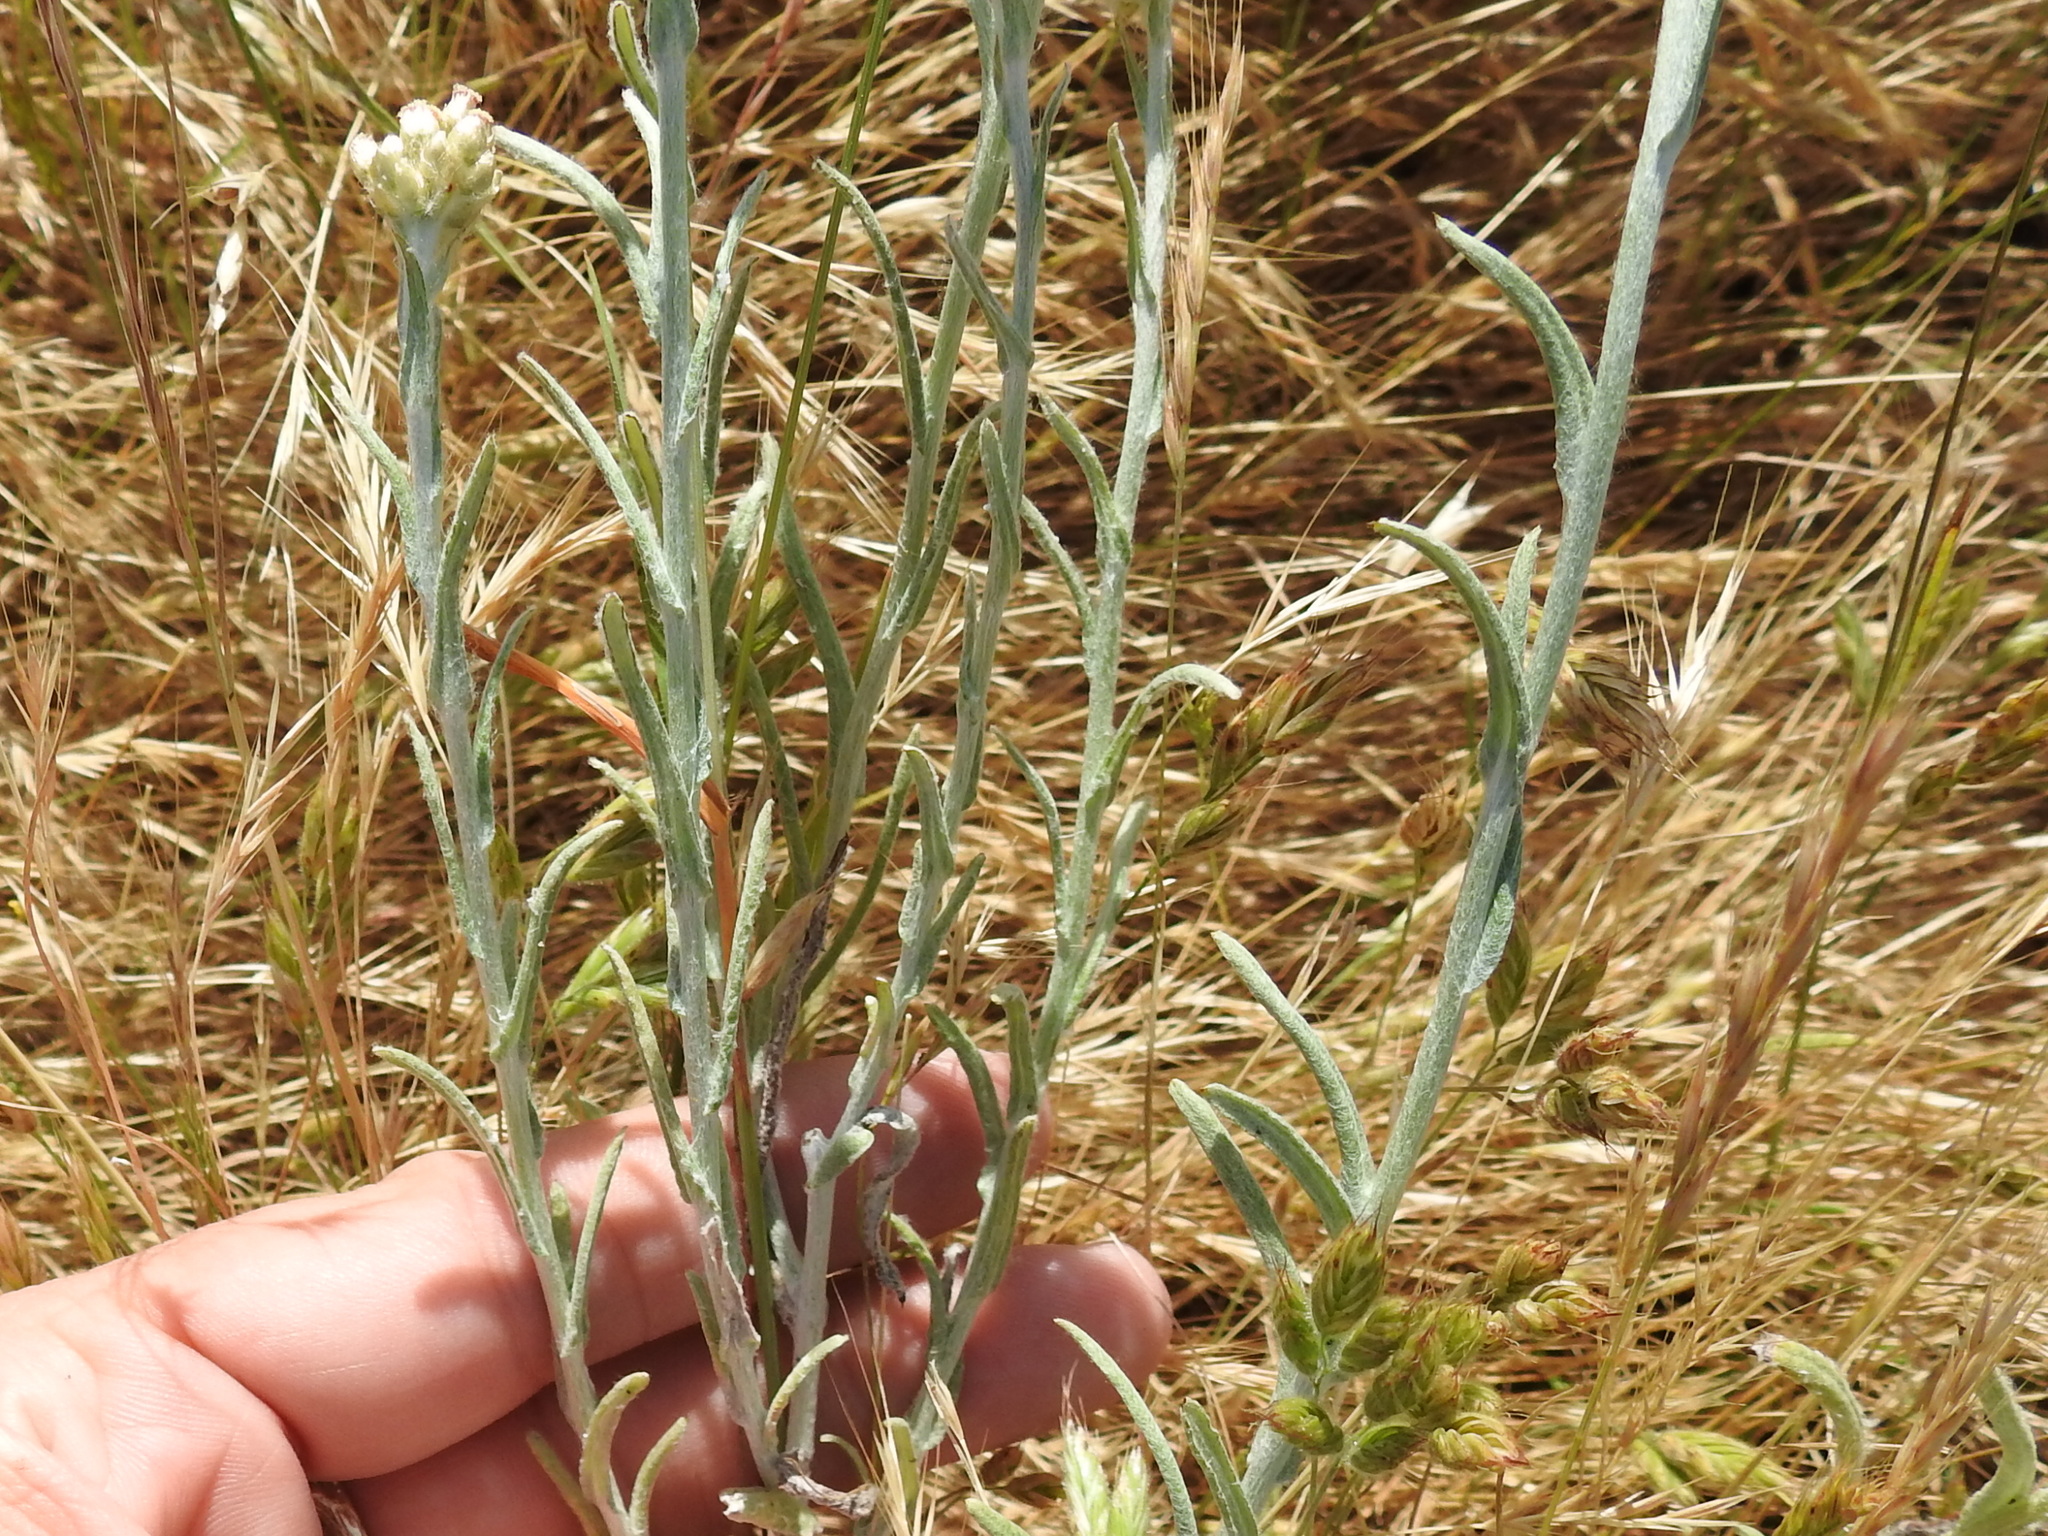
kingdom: Plantae
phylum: Tracheophyta
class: Magnoliopsida
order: Asterales
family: Asteraceae
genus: Helichrysum
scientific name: Helichrysum luteoalbum
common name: Daisy
